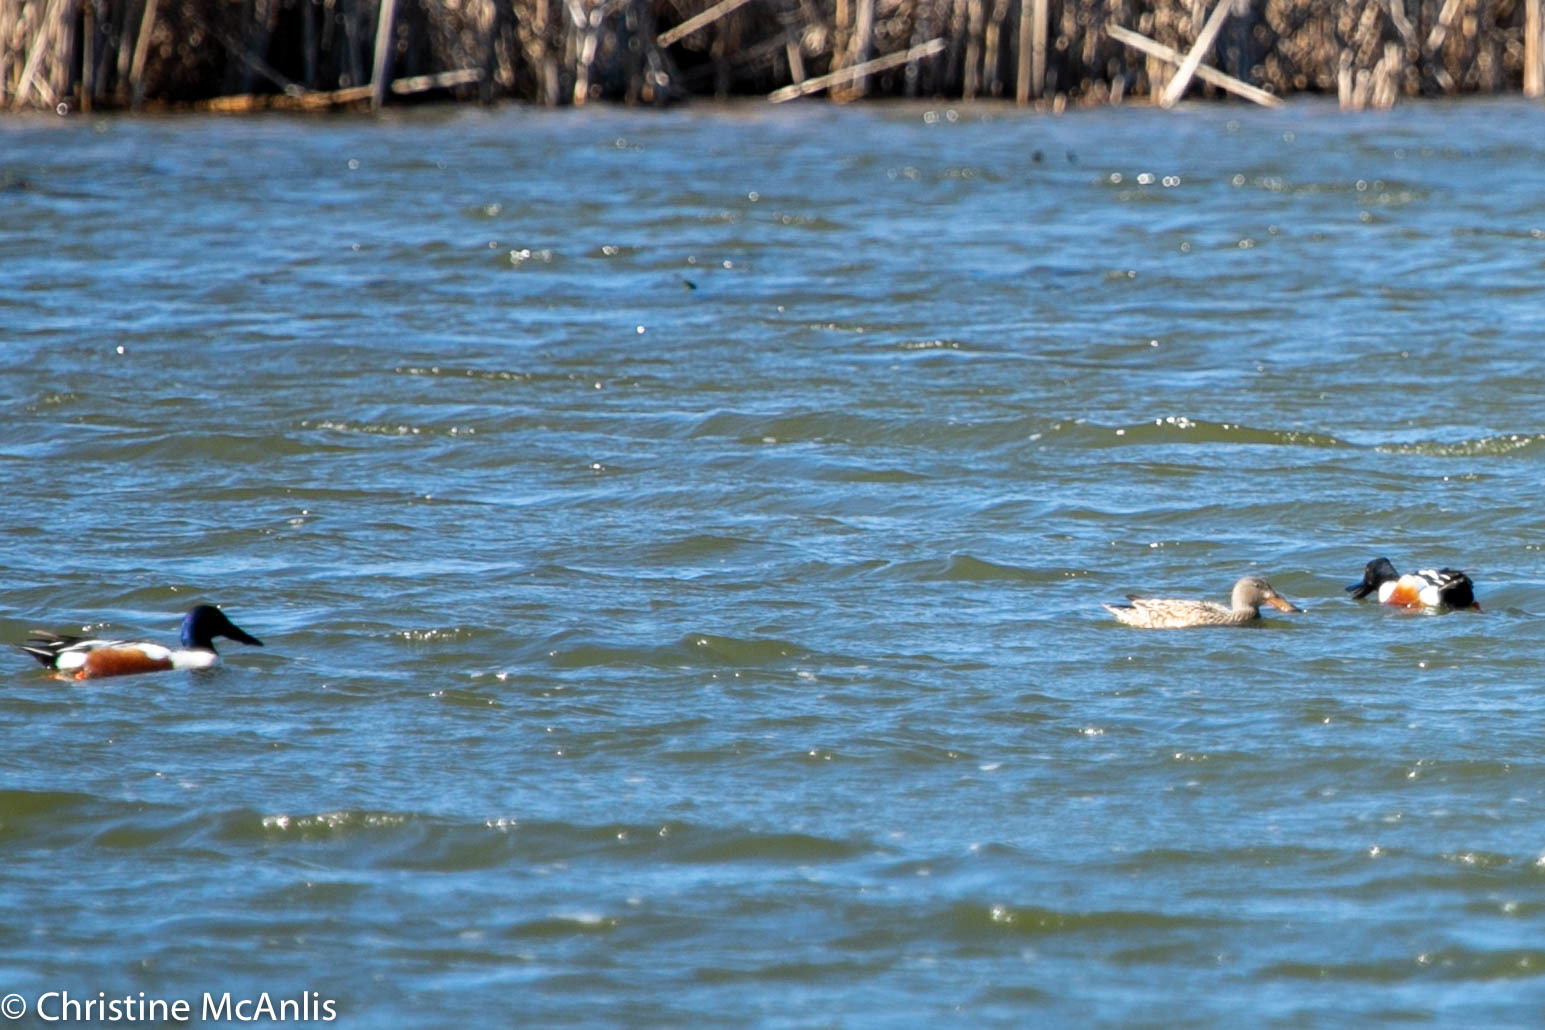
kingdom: Animalia
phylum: Chordata
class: Aves
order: Anseriformes
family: Anatidae
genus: Spatula
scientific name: Spatula clypeata
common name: Northern shoveler
